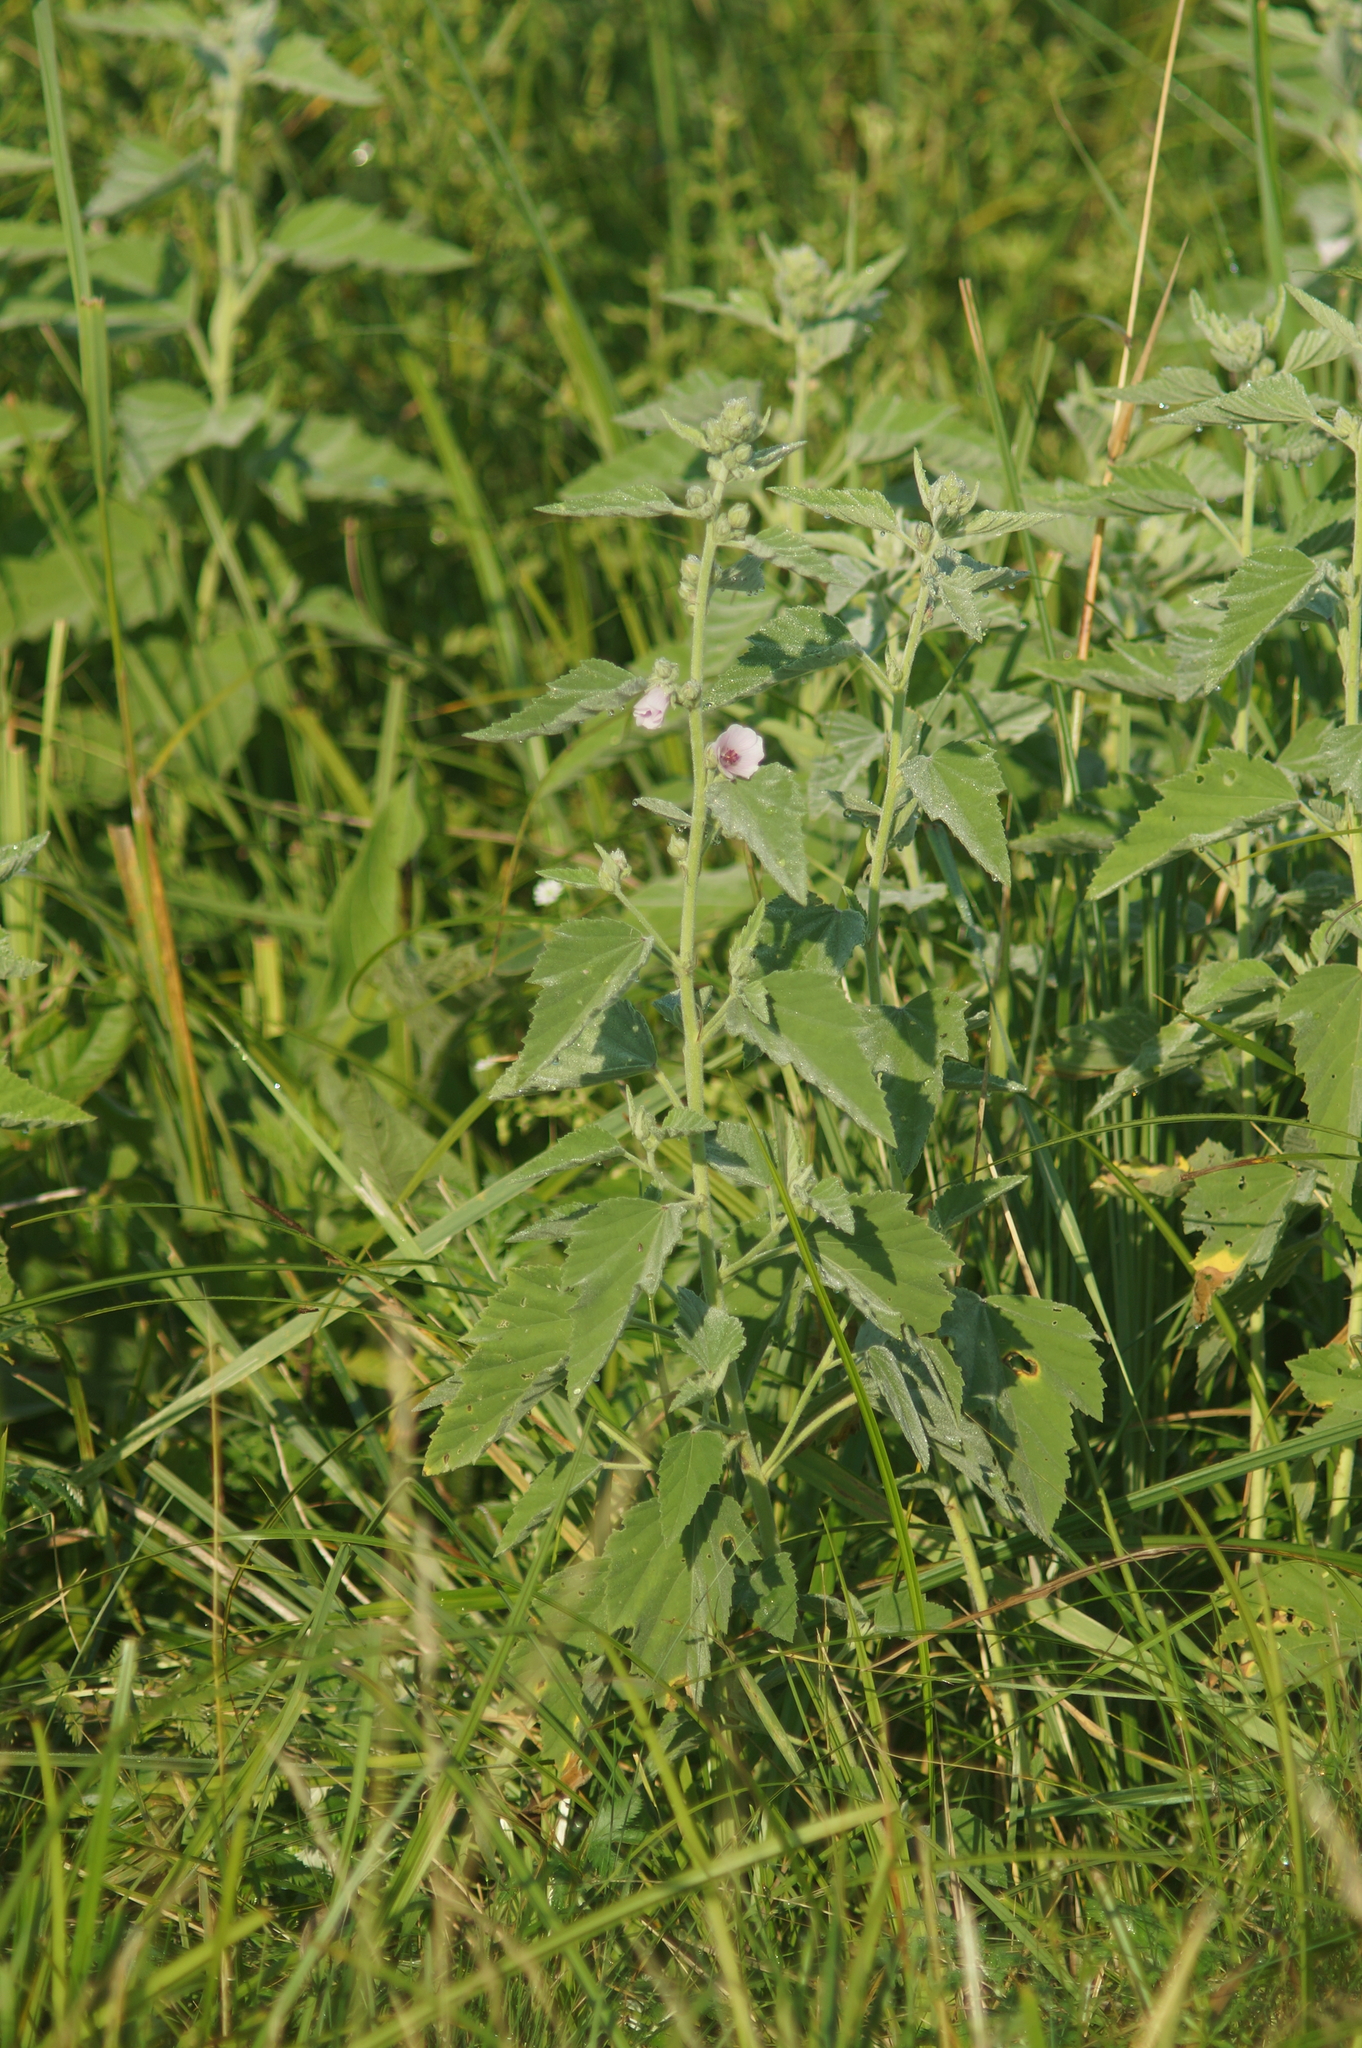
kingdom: Plantae
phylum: Tracheophyta
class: Magnoliopsida
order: Malvales
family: Malvaceae
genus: Althaea
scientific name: Althaea officinalis
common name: Marsh-mallow
